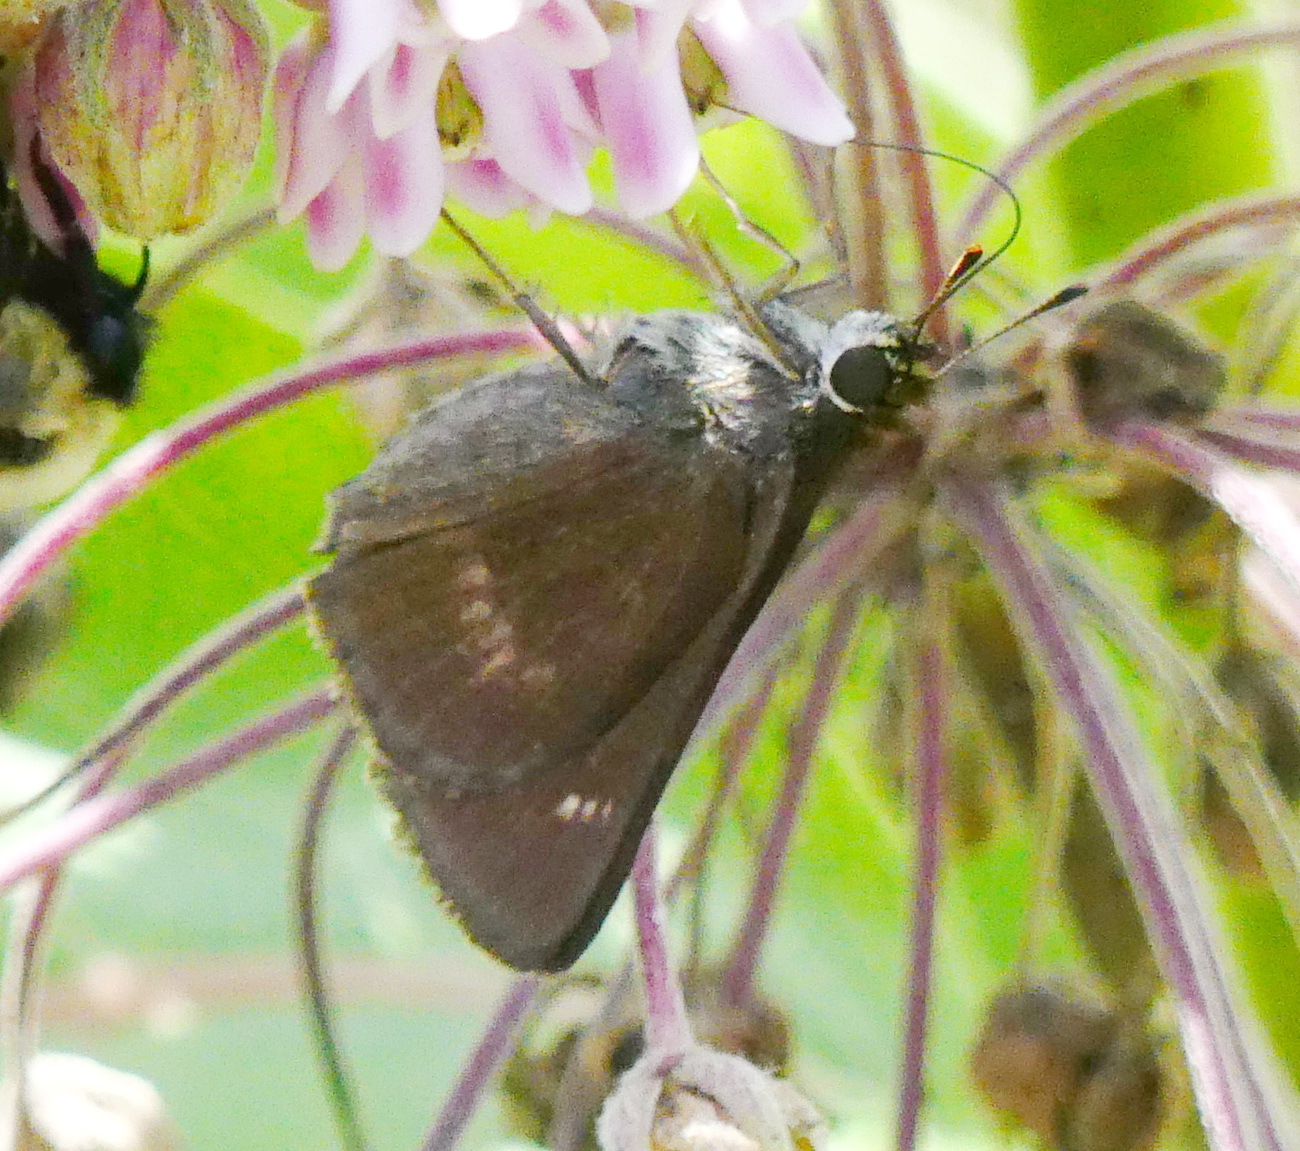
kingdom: Animalia
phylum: Arthropoda
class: Insecta
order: Lepidoptera
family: Hesperiidae
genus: Euphyes
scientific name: Euphyes vestris
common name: Dun skipper
